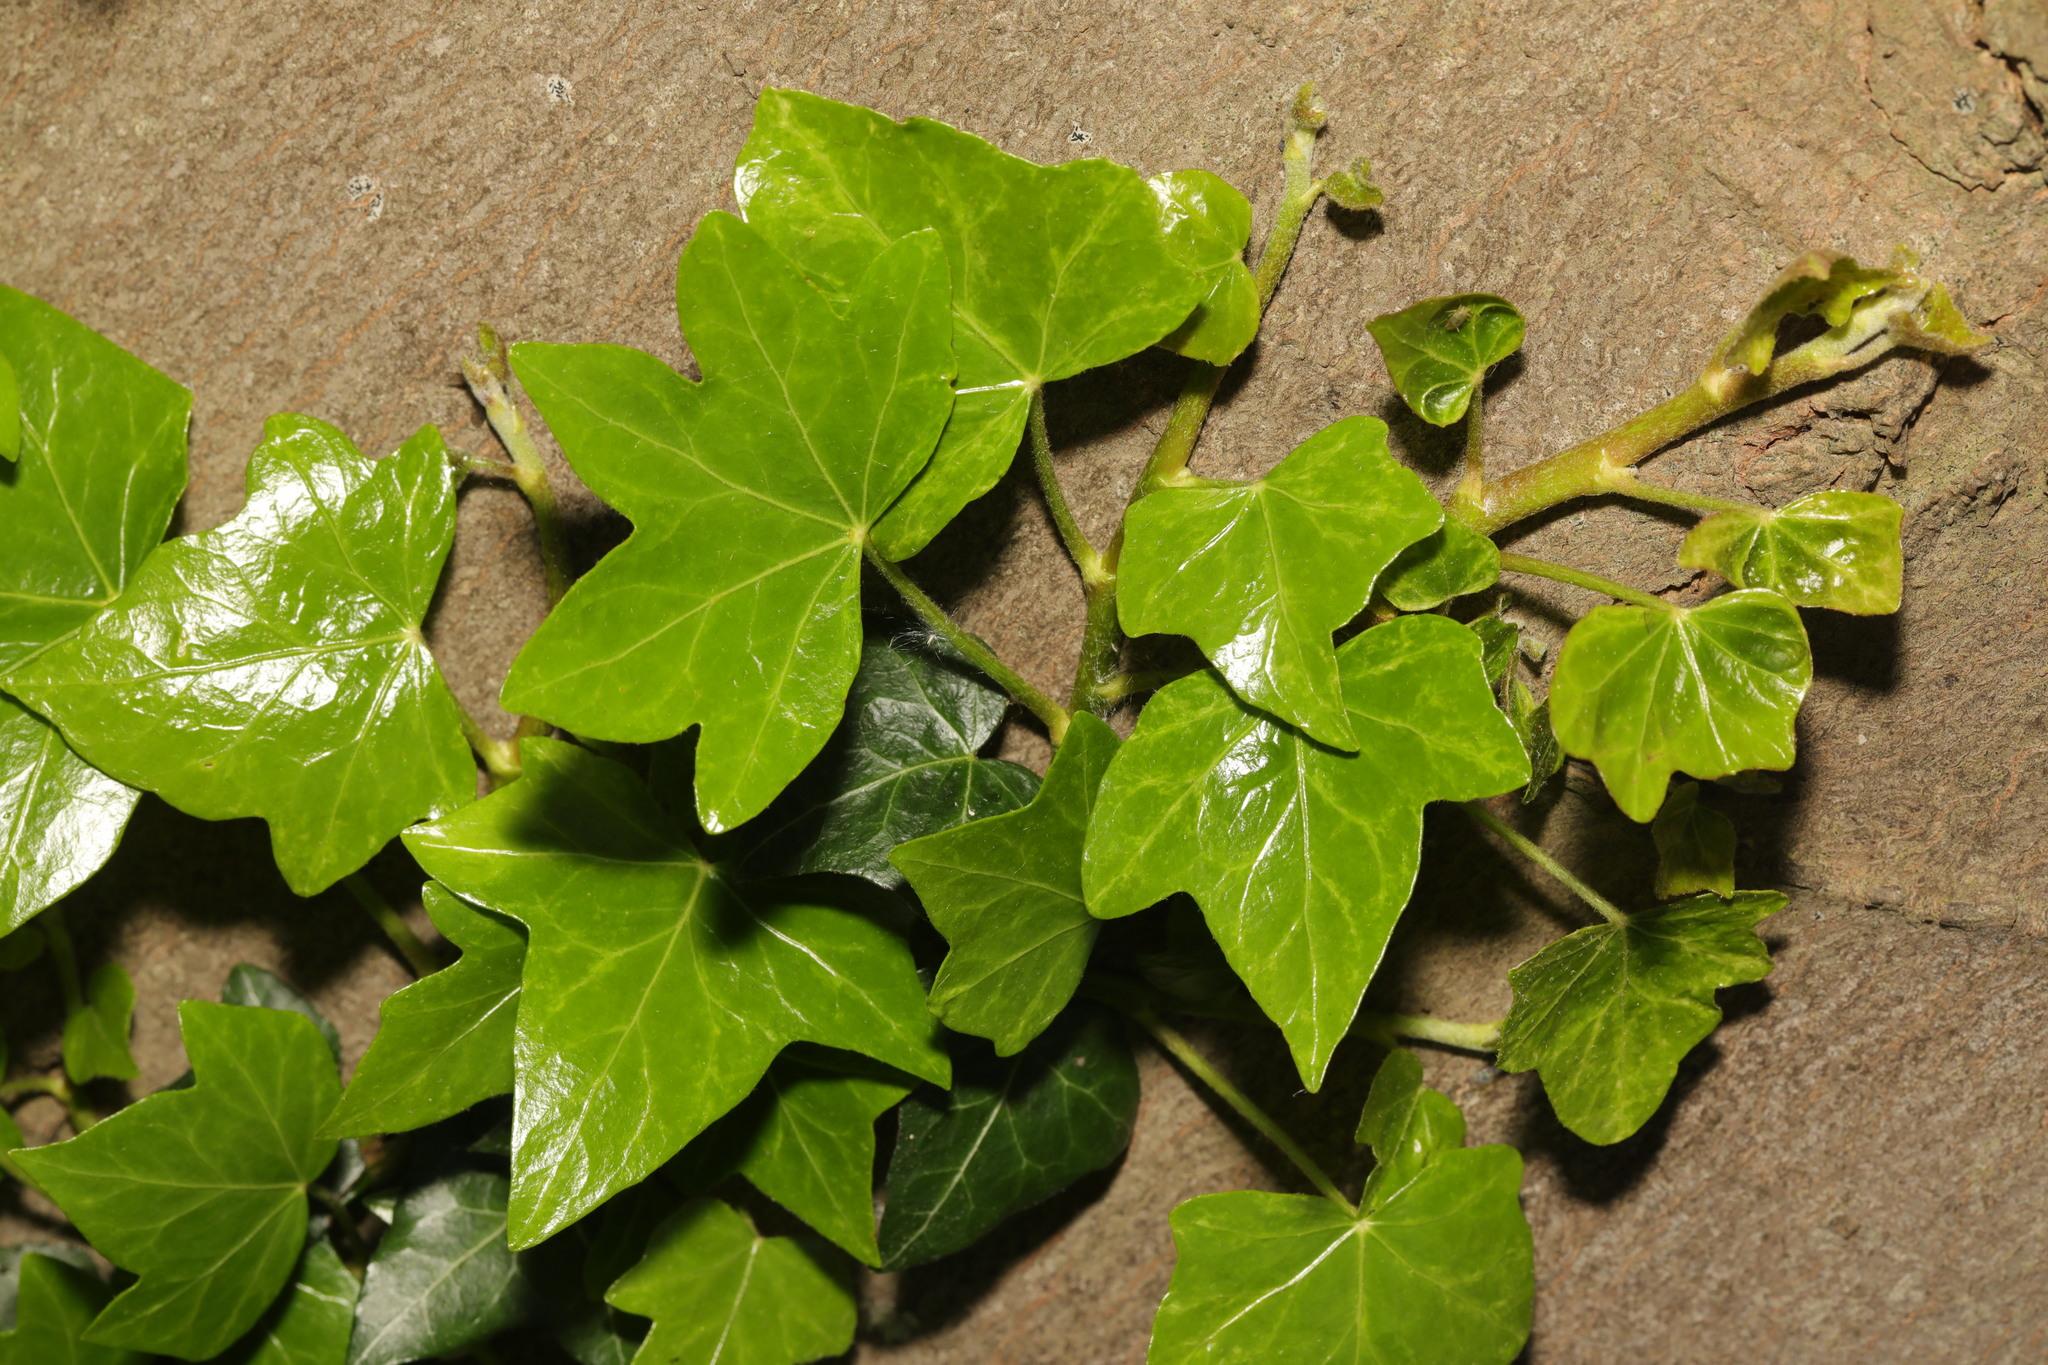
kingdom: Plantae
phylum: Tracheophyta
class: Magnoliopsida
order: Apiales
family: Araliaceae
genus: Hedera
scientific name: Hedera helix
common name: Ivy
